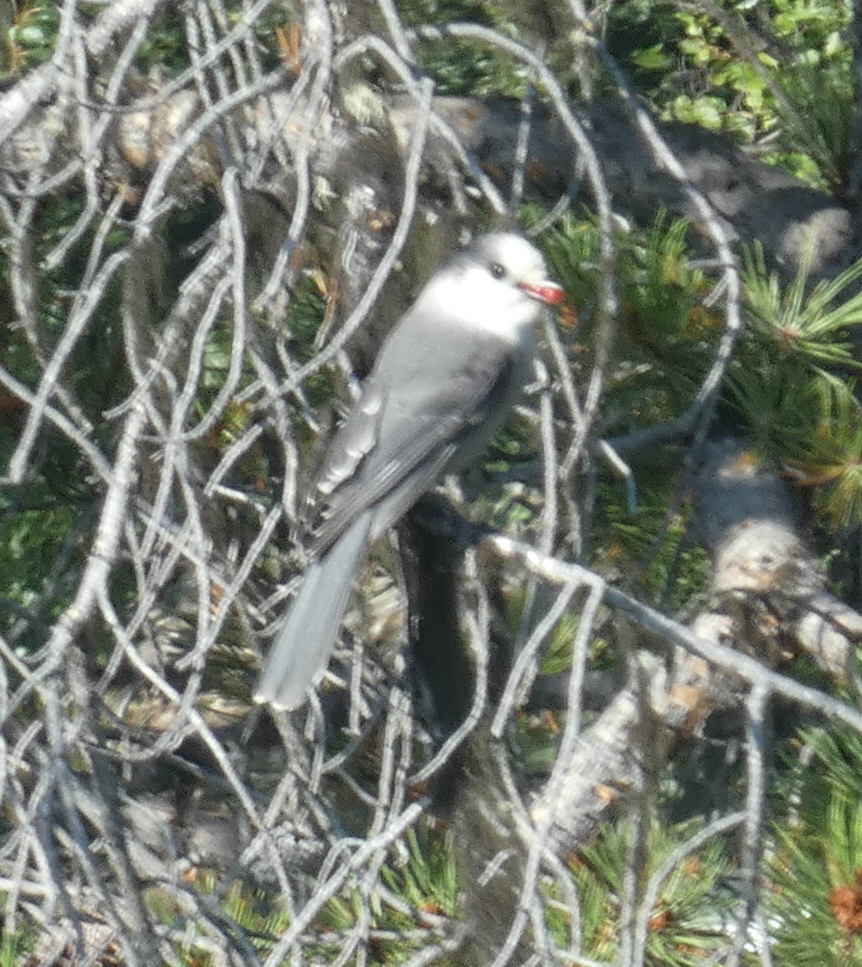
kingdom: Animalia
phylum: Chordata
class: Aves
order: Passeriformes
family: Corvidae
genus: Perisoreus
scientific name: Perisoreus canadensis
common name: Gray jay
